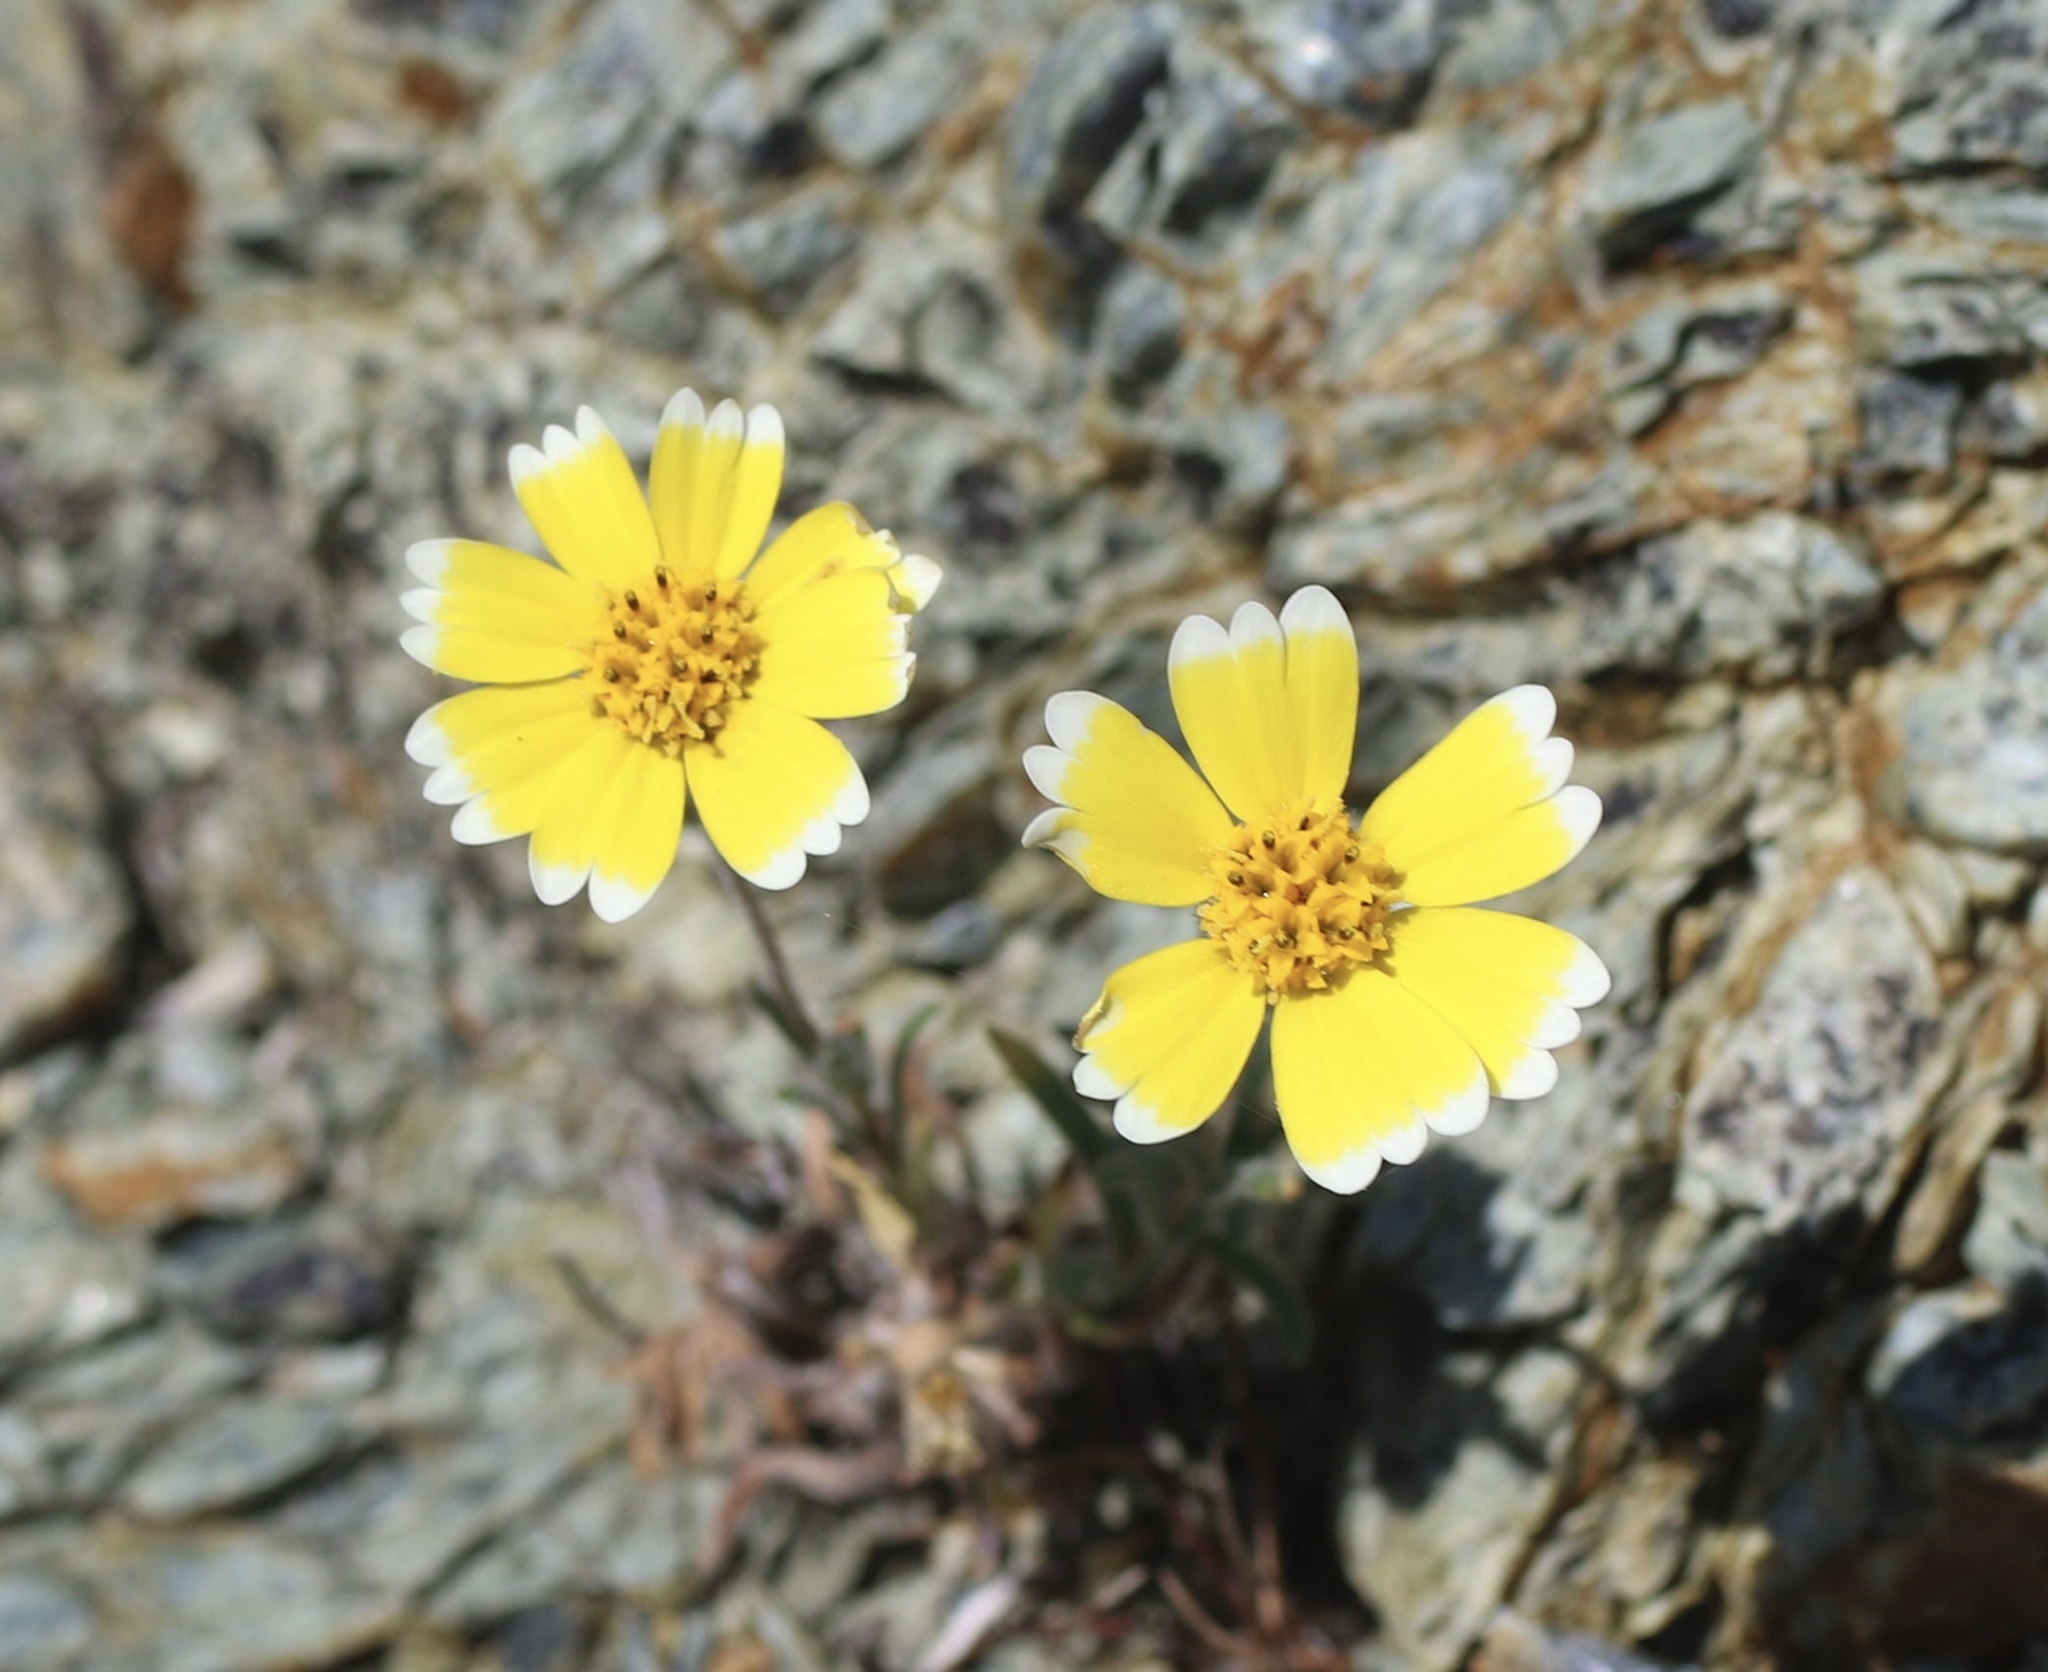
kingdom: Plantae
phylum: Tracheophyta
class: Magnoliopsida
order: Asterales
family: Asteraceae
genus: Layia
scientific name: Layia platyglossa
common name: Tidy-tips
